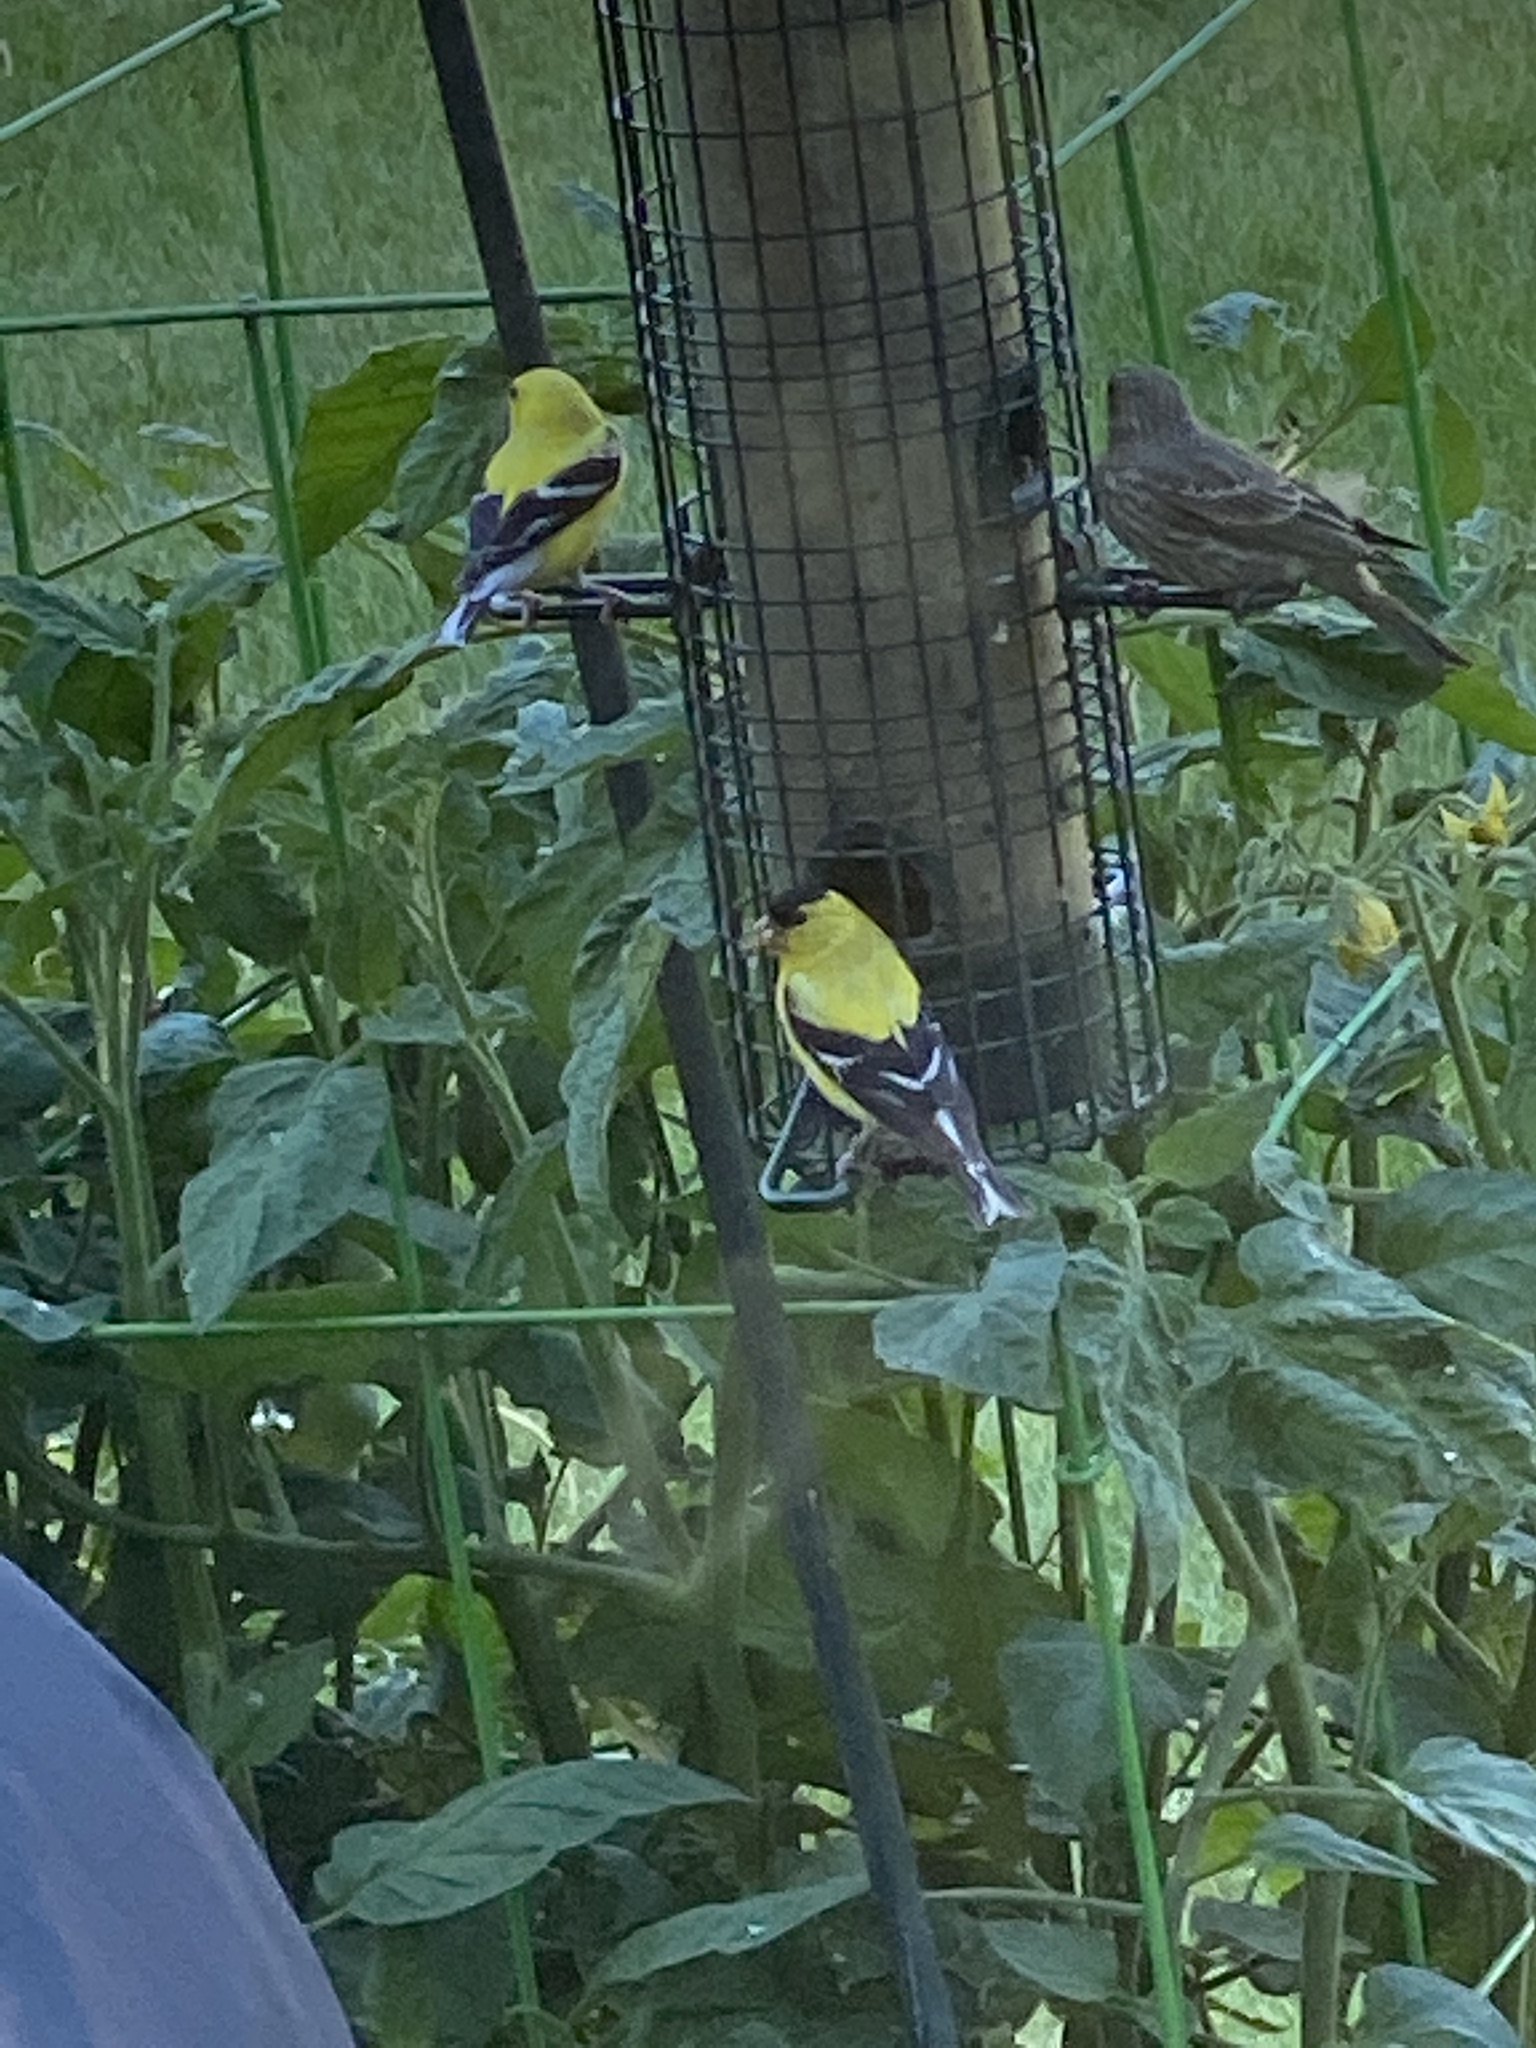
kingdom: Animalia
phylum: Chordata
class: Aves
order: Passeriformes
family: Fringillidae
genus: Spinus
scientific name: Spinus tristis
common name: American goldfinch
